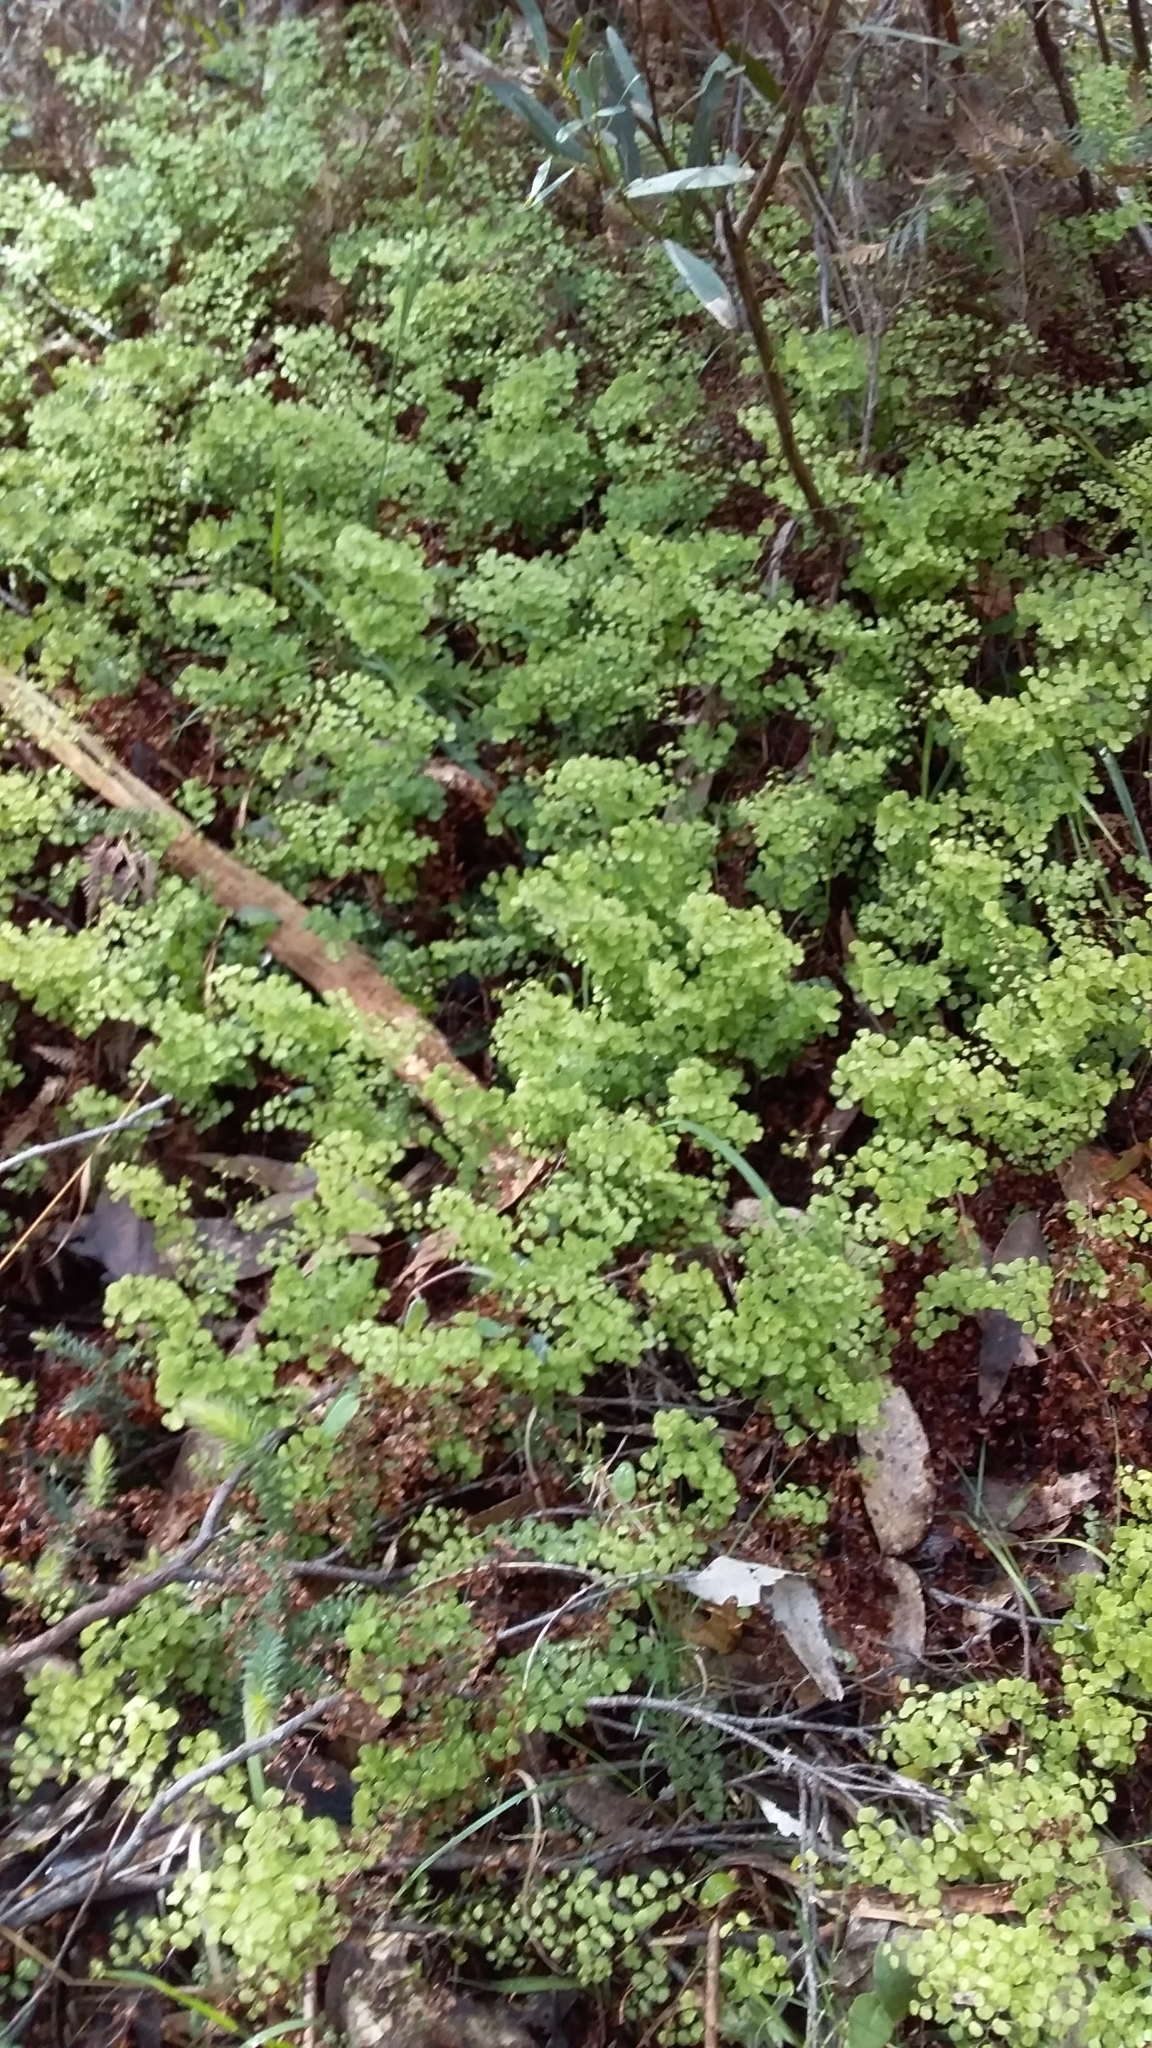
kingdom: Plantae
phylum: Tracheophyta
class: Polypodiopsida
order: Polypodiales
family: Pteridaceae
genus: Adiantum
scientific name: Adiantum aethiopicum
